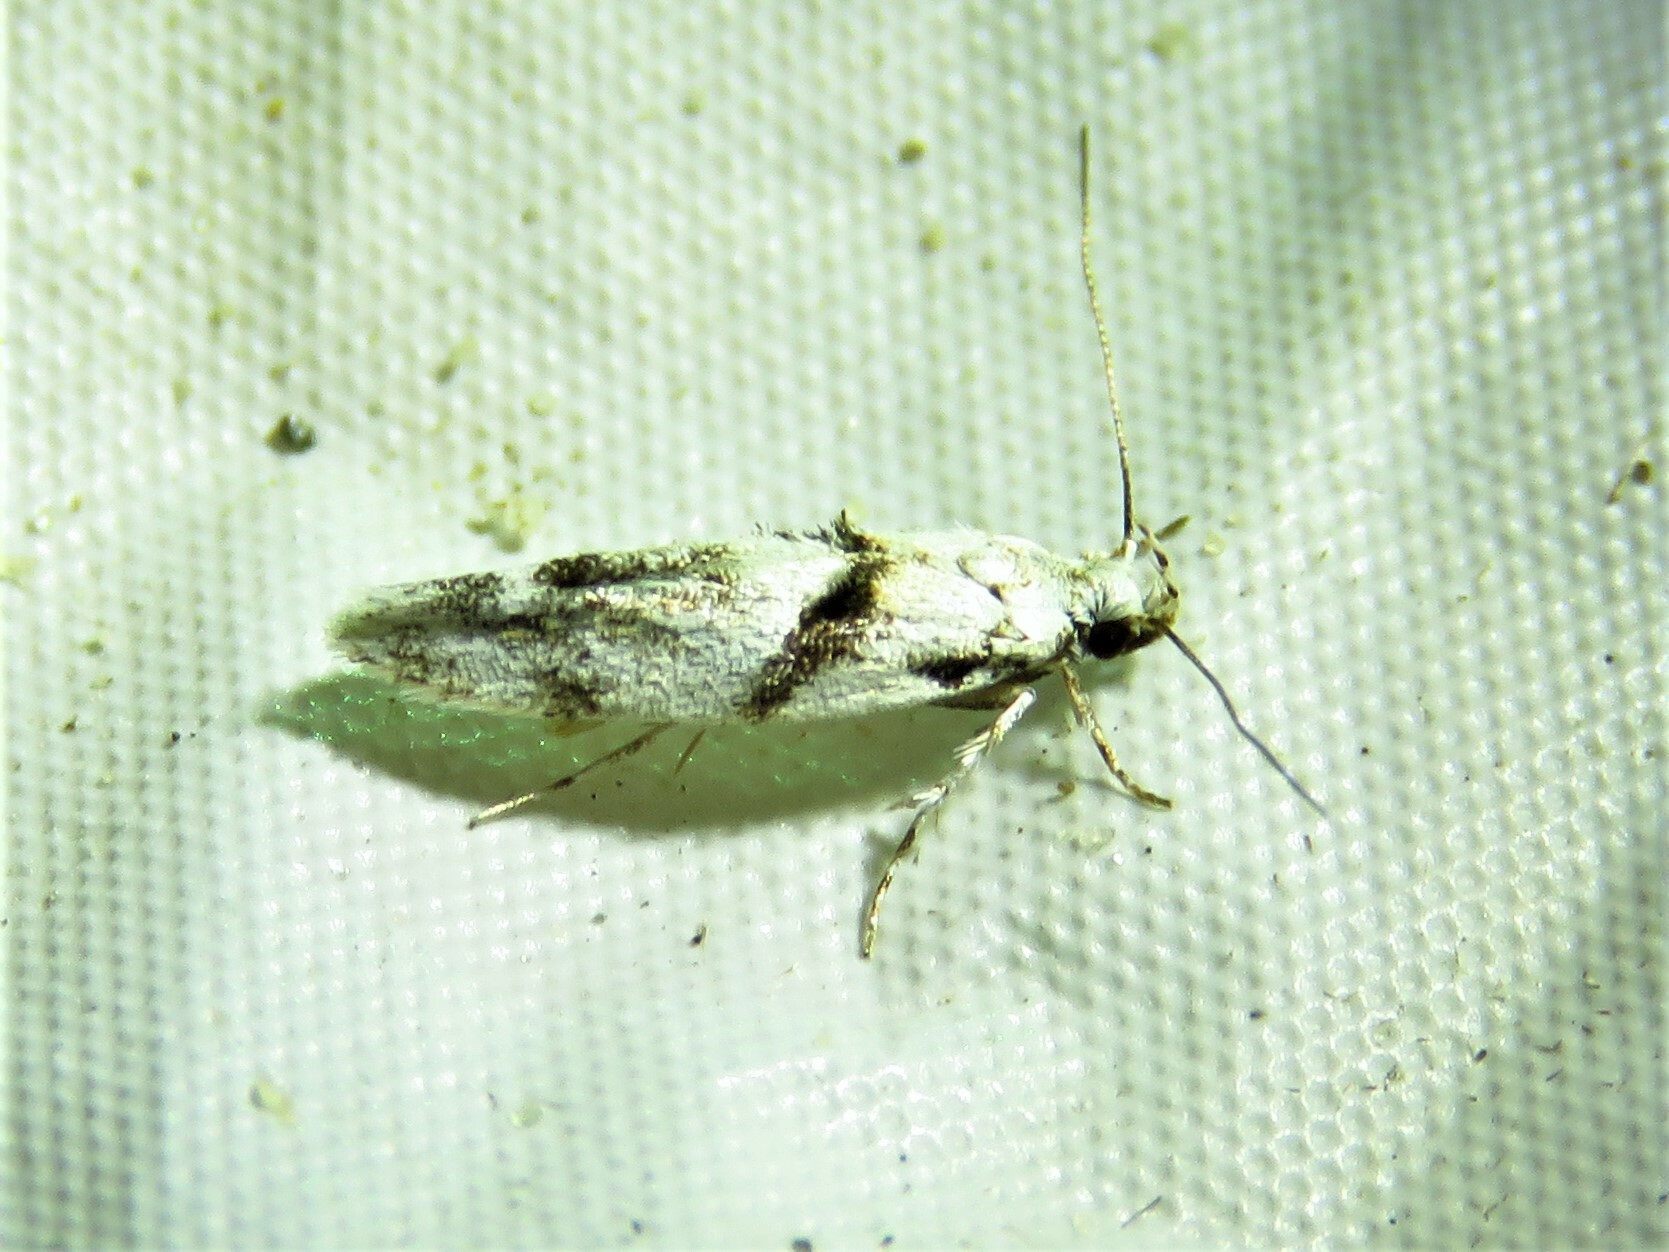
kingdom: Animalia
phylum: Arthropoda
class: Insecta
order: Lepidoptera
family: Gelechiidae
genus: Arogalea
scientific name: Arogalea cristifasciella
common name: White stripe-backed moth
